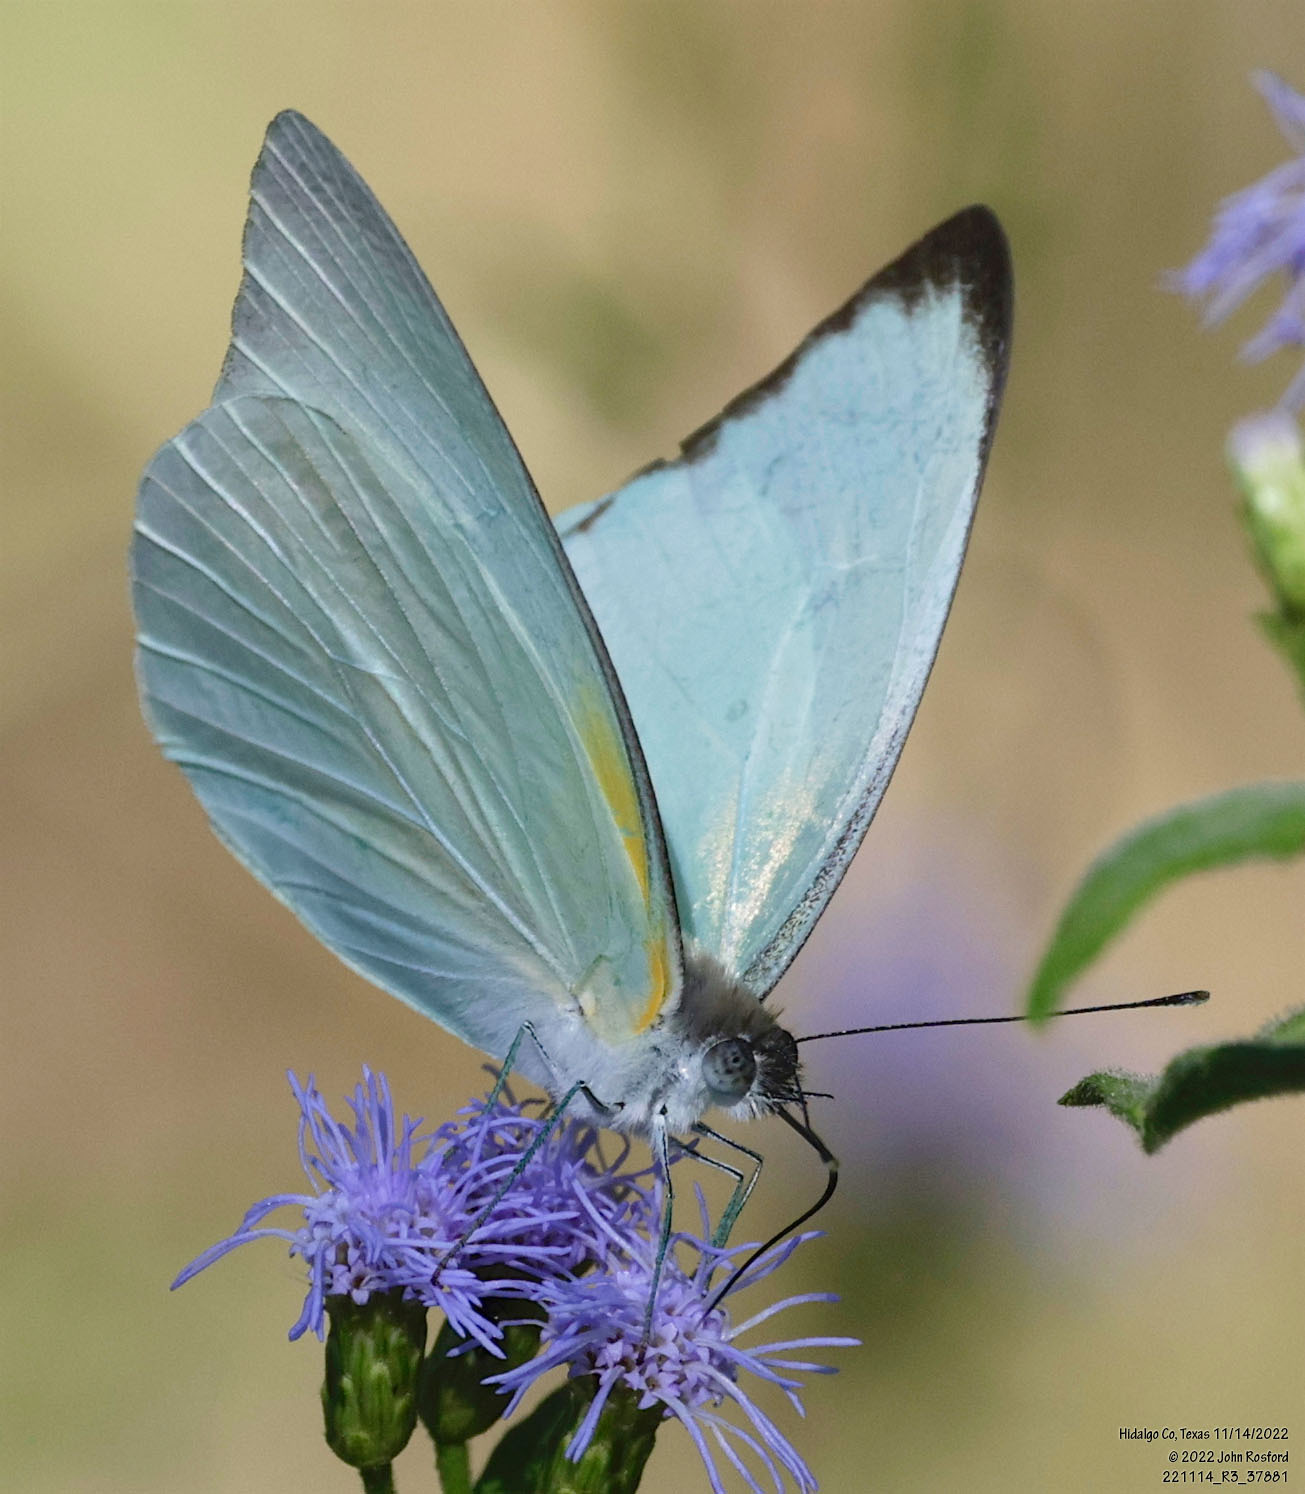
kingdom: Animalia
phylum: Arthropoda
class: Insecta
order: Lepidoptera
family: Pieridae
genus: Glutophrissa
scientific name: Glutophrissa drusilla
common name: Florida white
